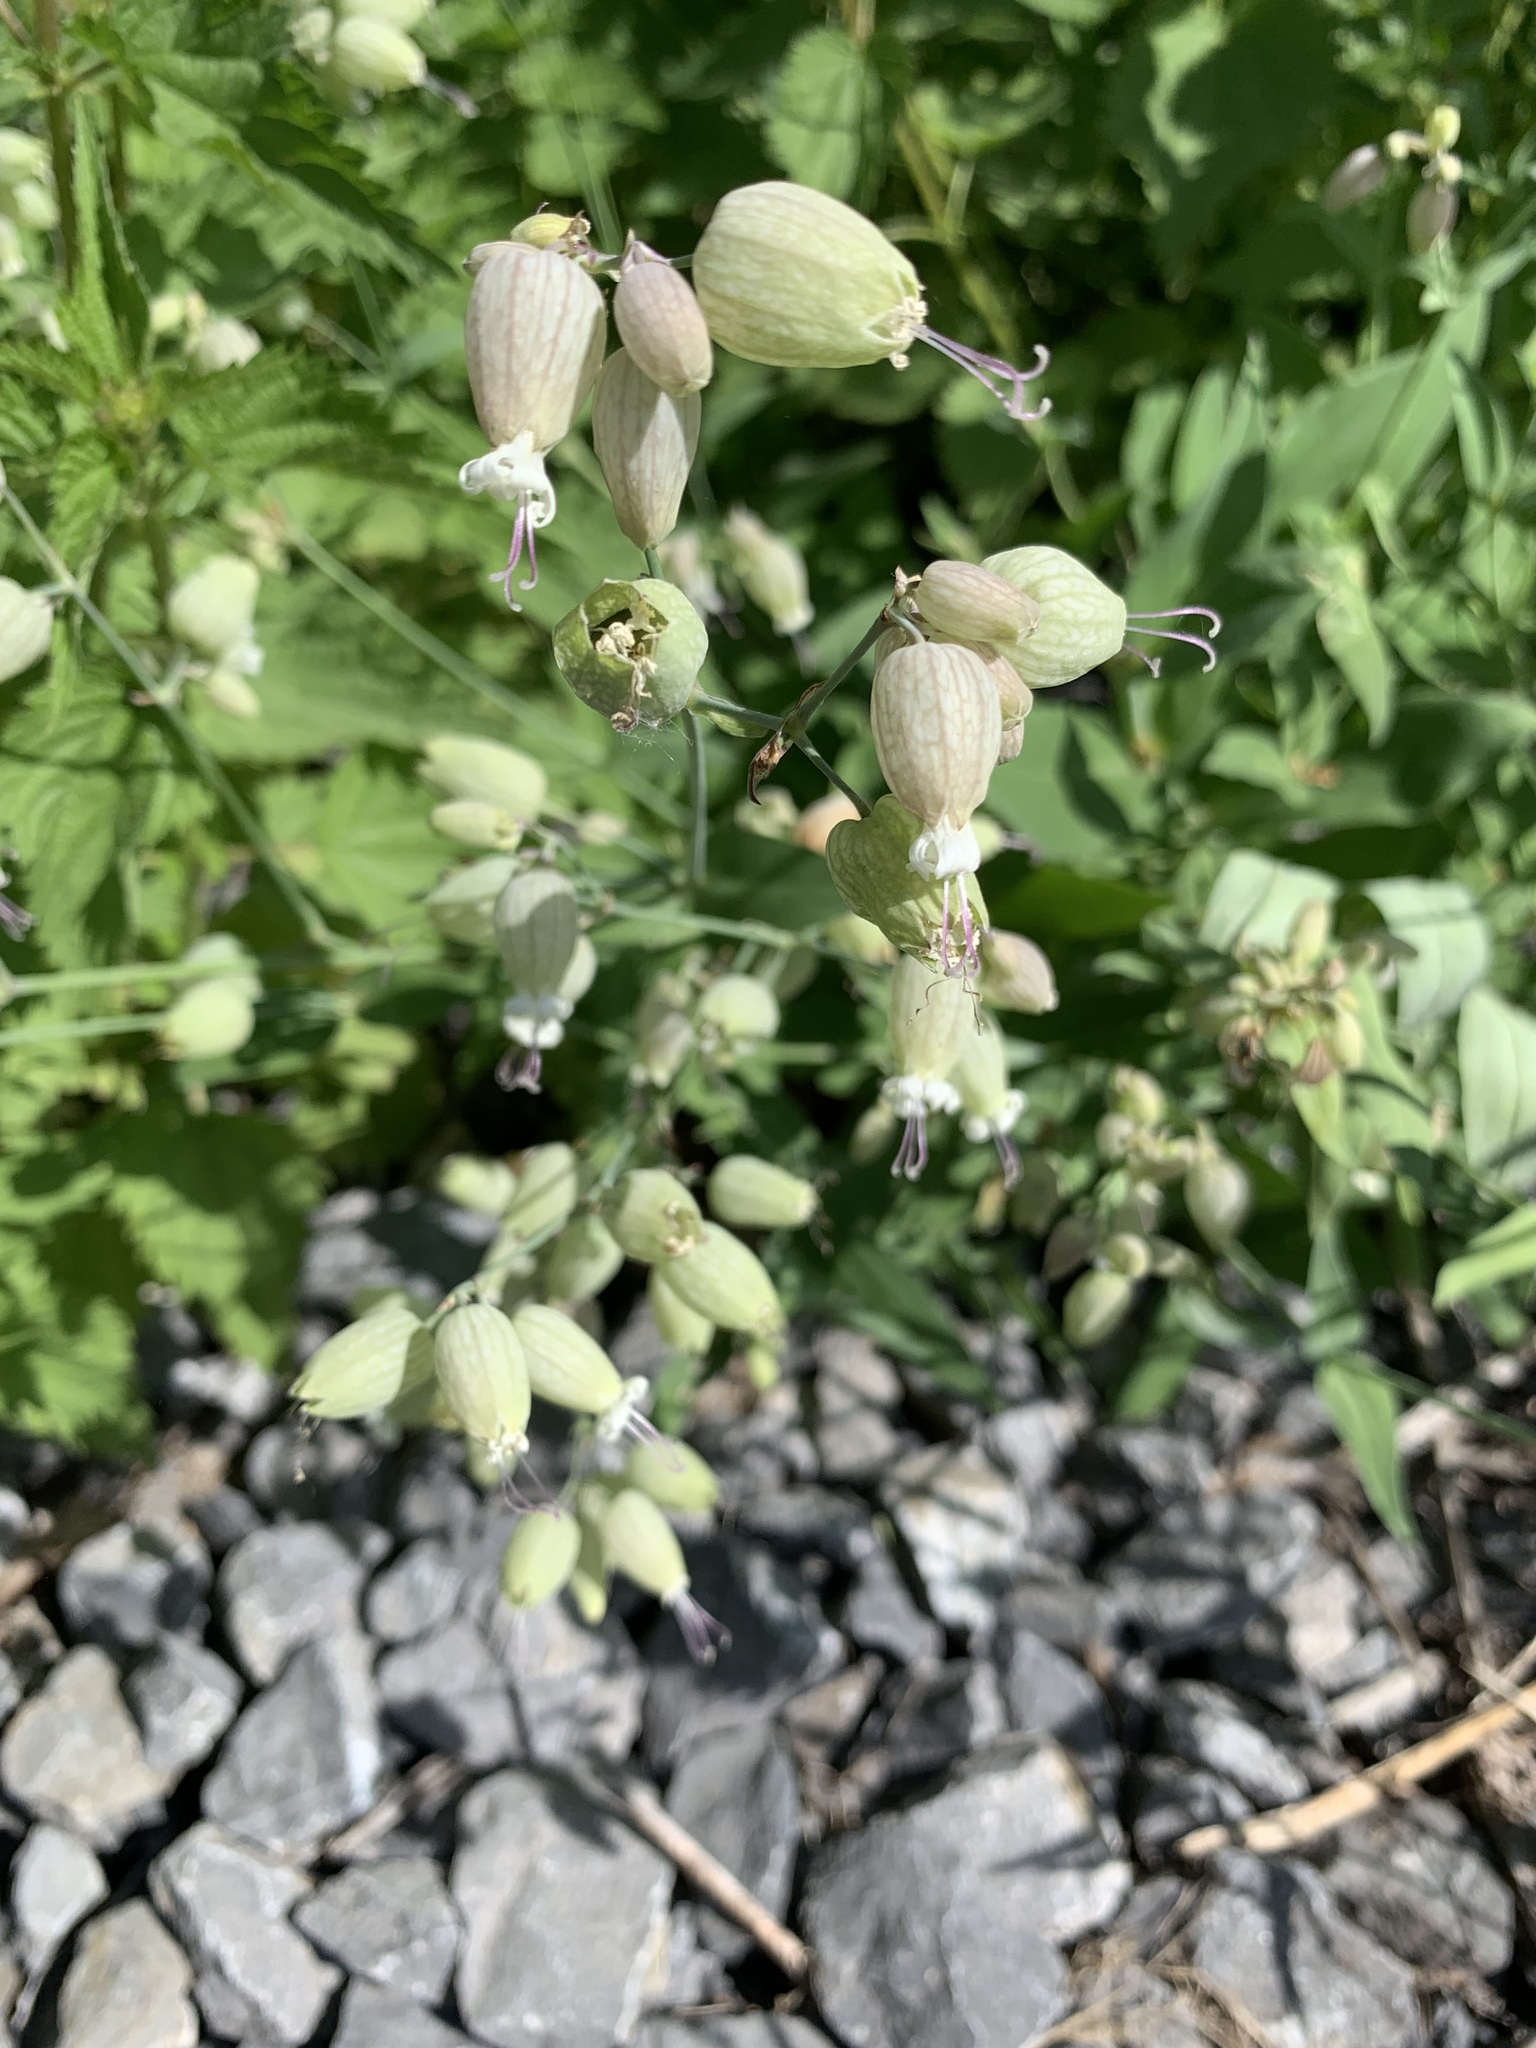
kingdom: Plantae
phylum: Tracheophyta
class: Magnoliopsida
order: Caryophyllales
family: Caryophyllaceae
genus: Silene
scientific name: Silene vulgaris
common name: Bladder campion
